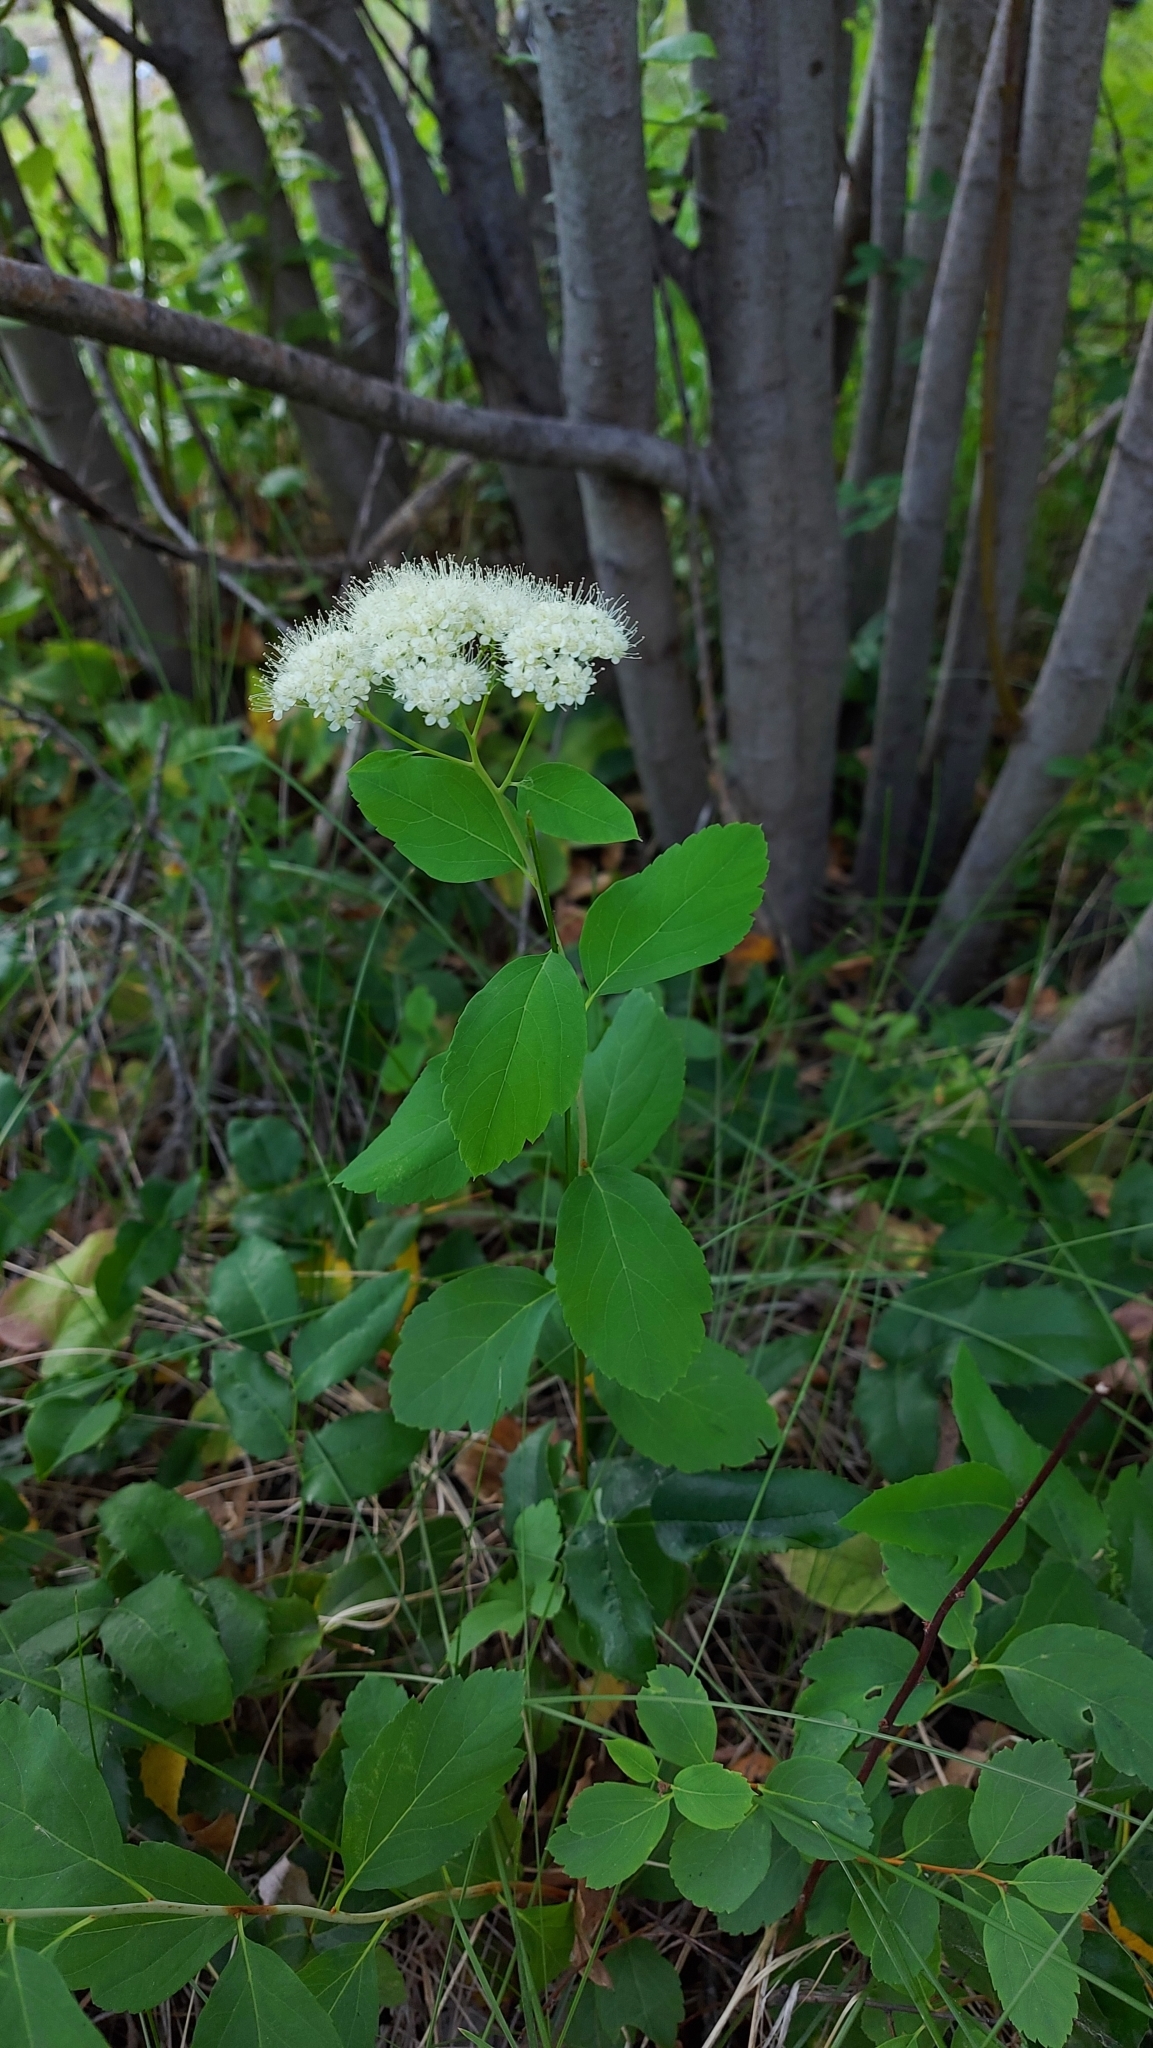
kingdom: Plantae
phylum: Tracheophyta
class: Magnoliopsida
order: Rosales
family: Rosaceae
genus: Spiraea
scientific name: Spiraea lucida
